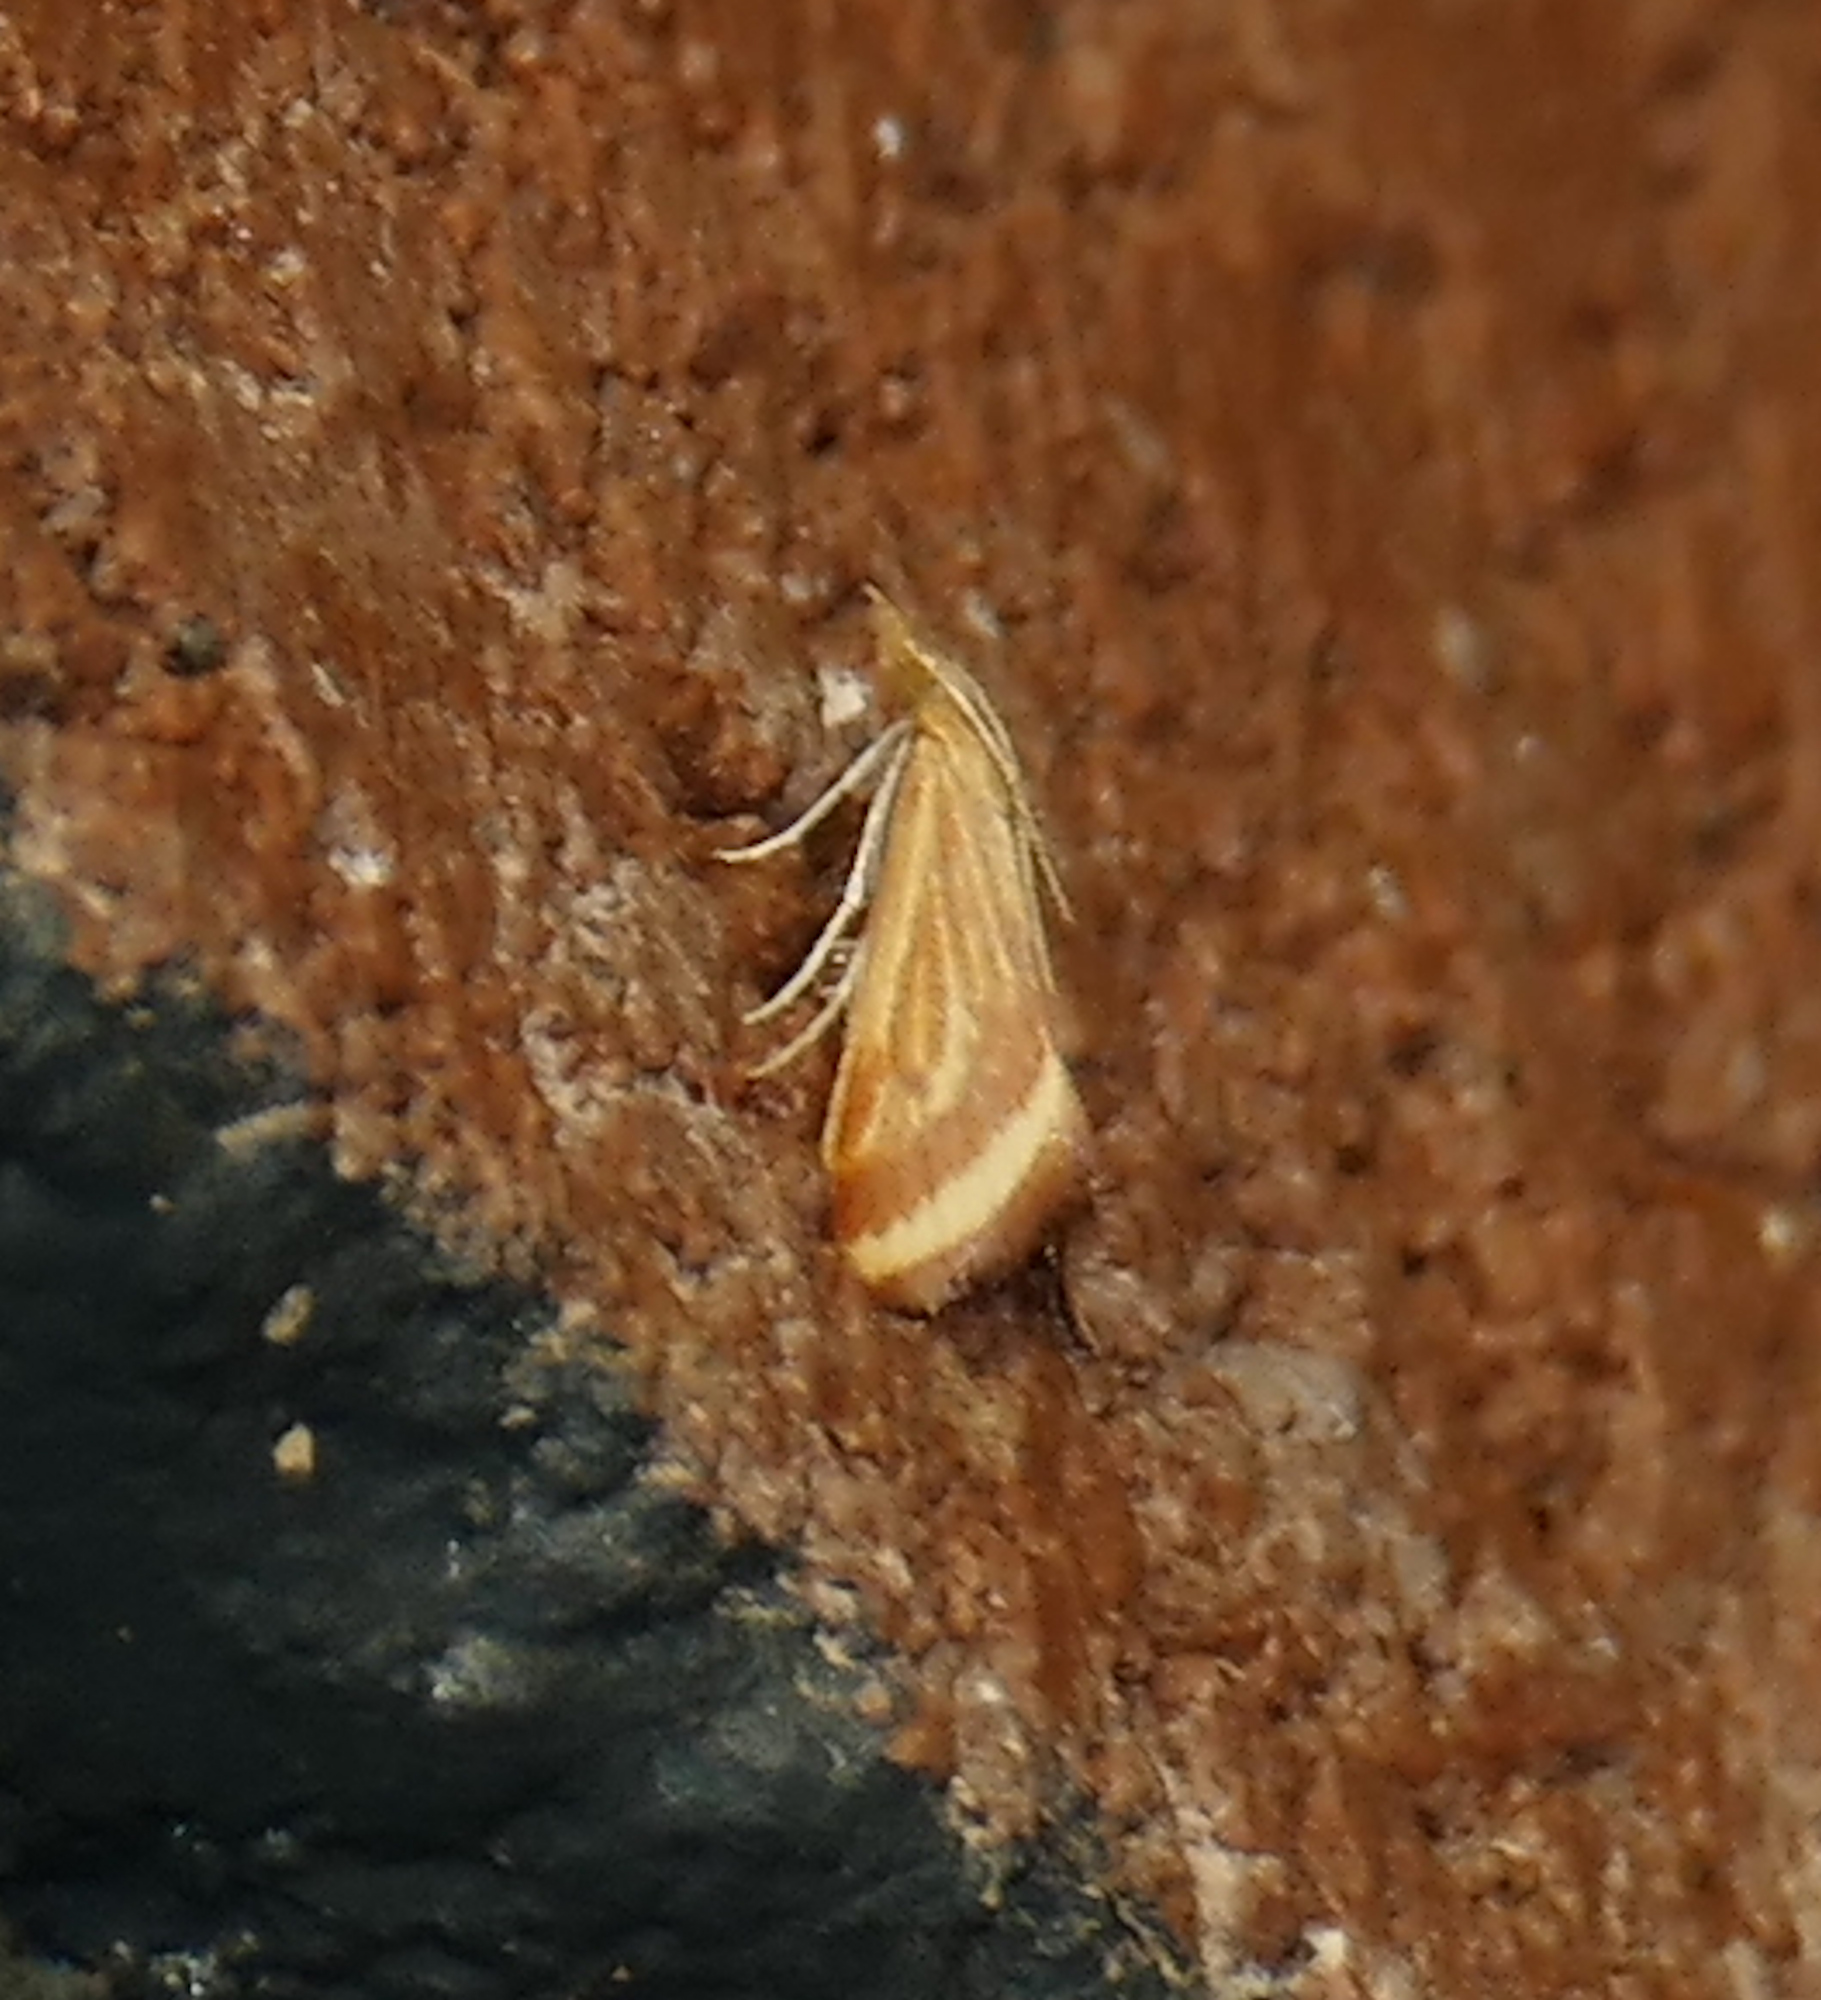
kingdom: Animalia
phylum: Arthropoda
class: Insecta
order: Lepidoptera
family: Crambidae
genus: Microtheoris
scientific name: Microtheoris ophionalis
